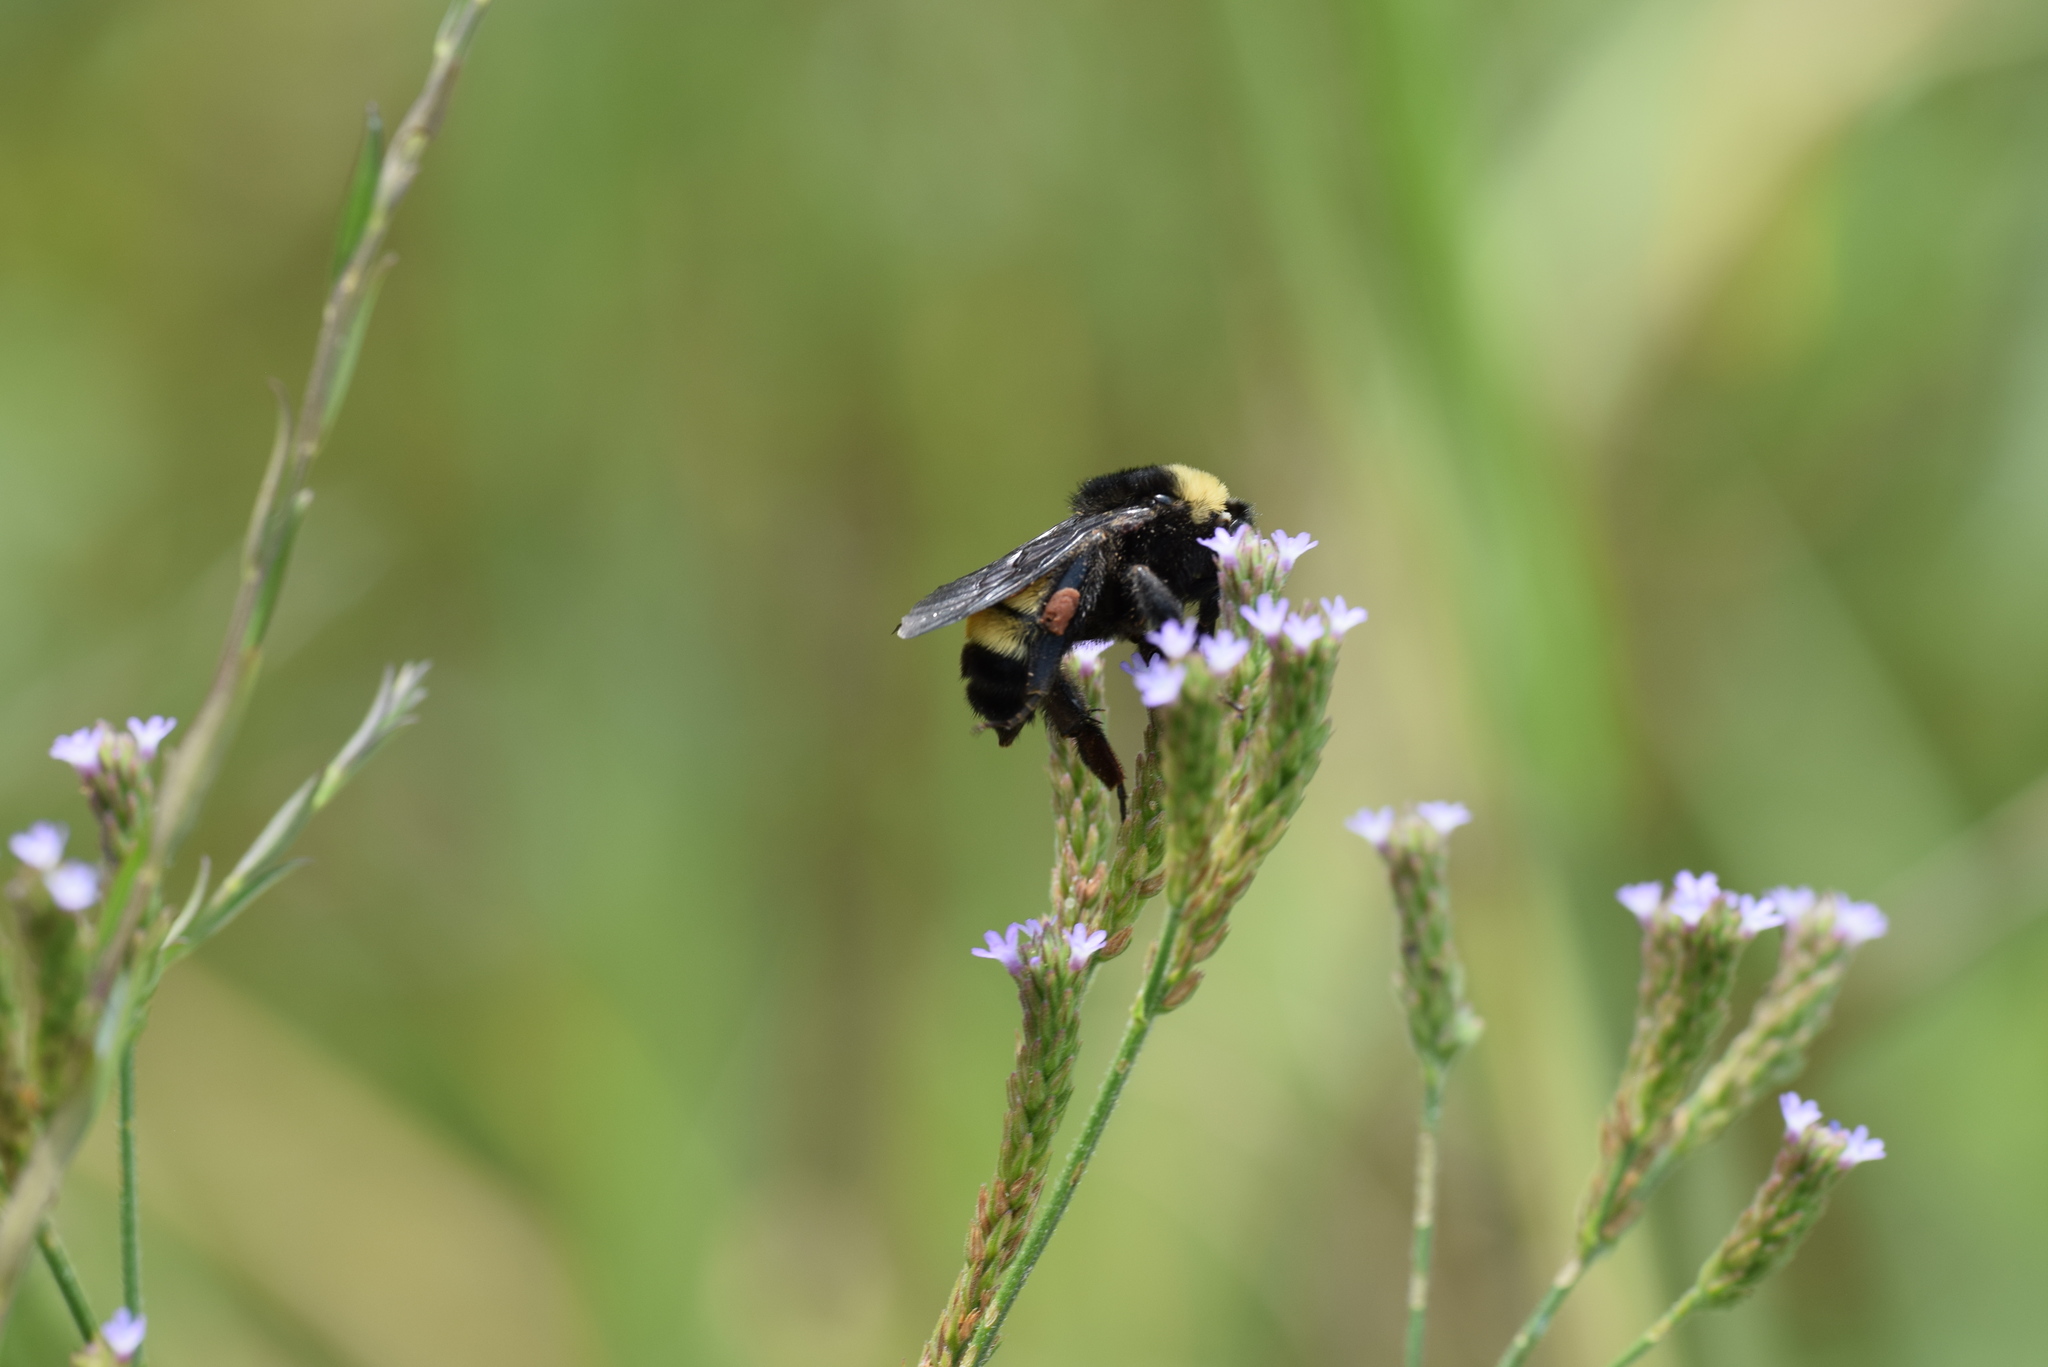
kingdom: Animalia
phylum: Arthropoda
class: Insecta
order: Hymenoptera
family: Apidae
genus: Bombus
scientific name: Bombus pensylvanicus
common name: Bumble bee
